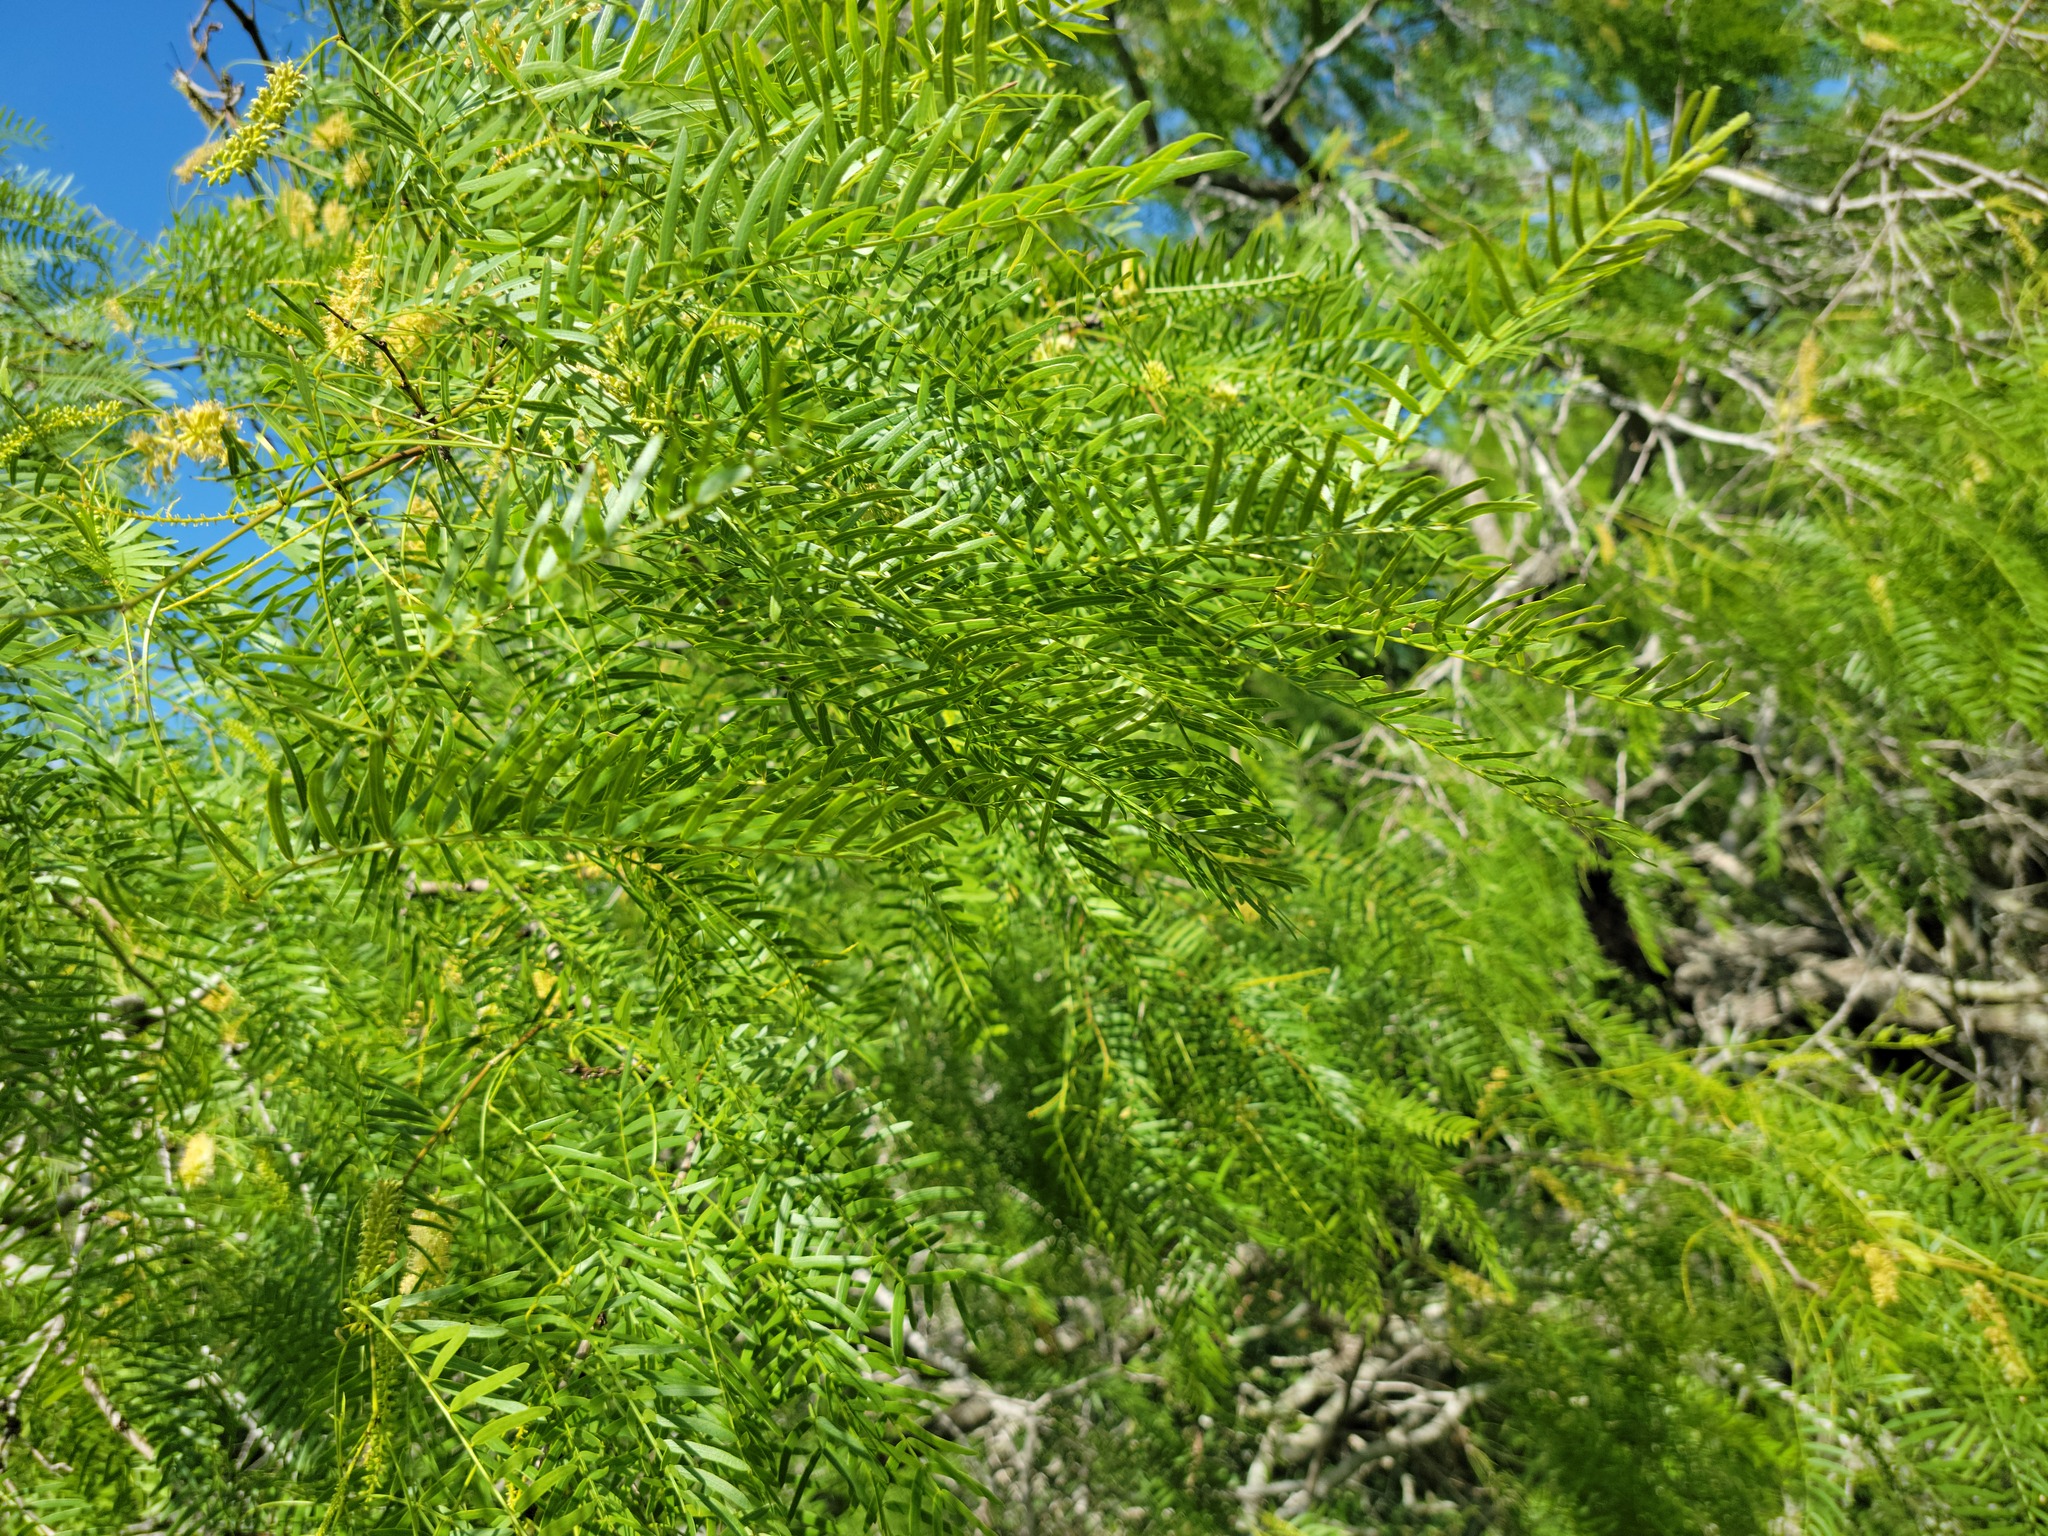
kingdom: Plantae
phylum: Tracheophyta
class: Magnoliopsida
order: Fabales
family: Fabaceae
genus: Prosopis
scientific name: Prosopis glandulosa
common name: Honey mesquite
